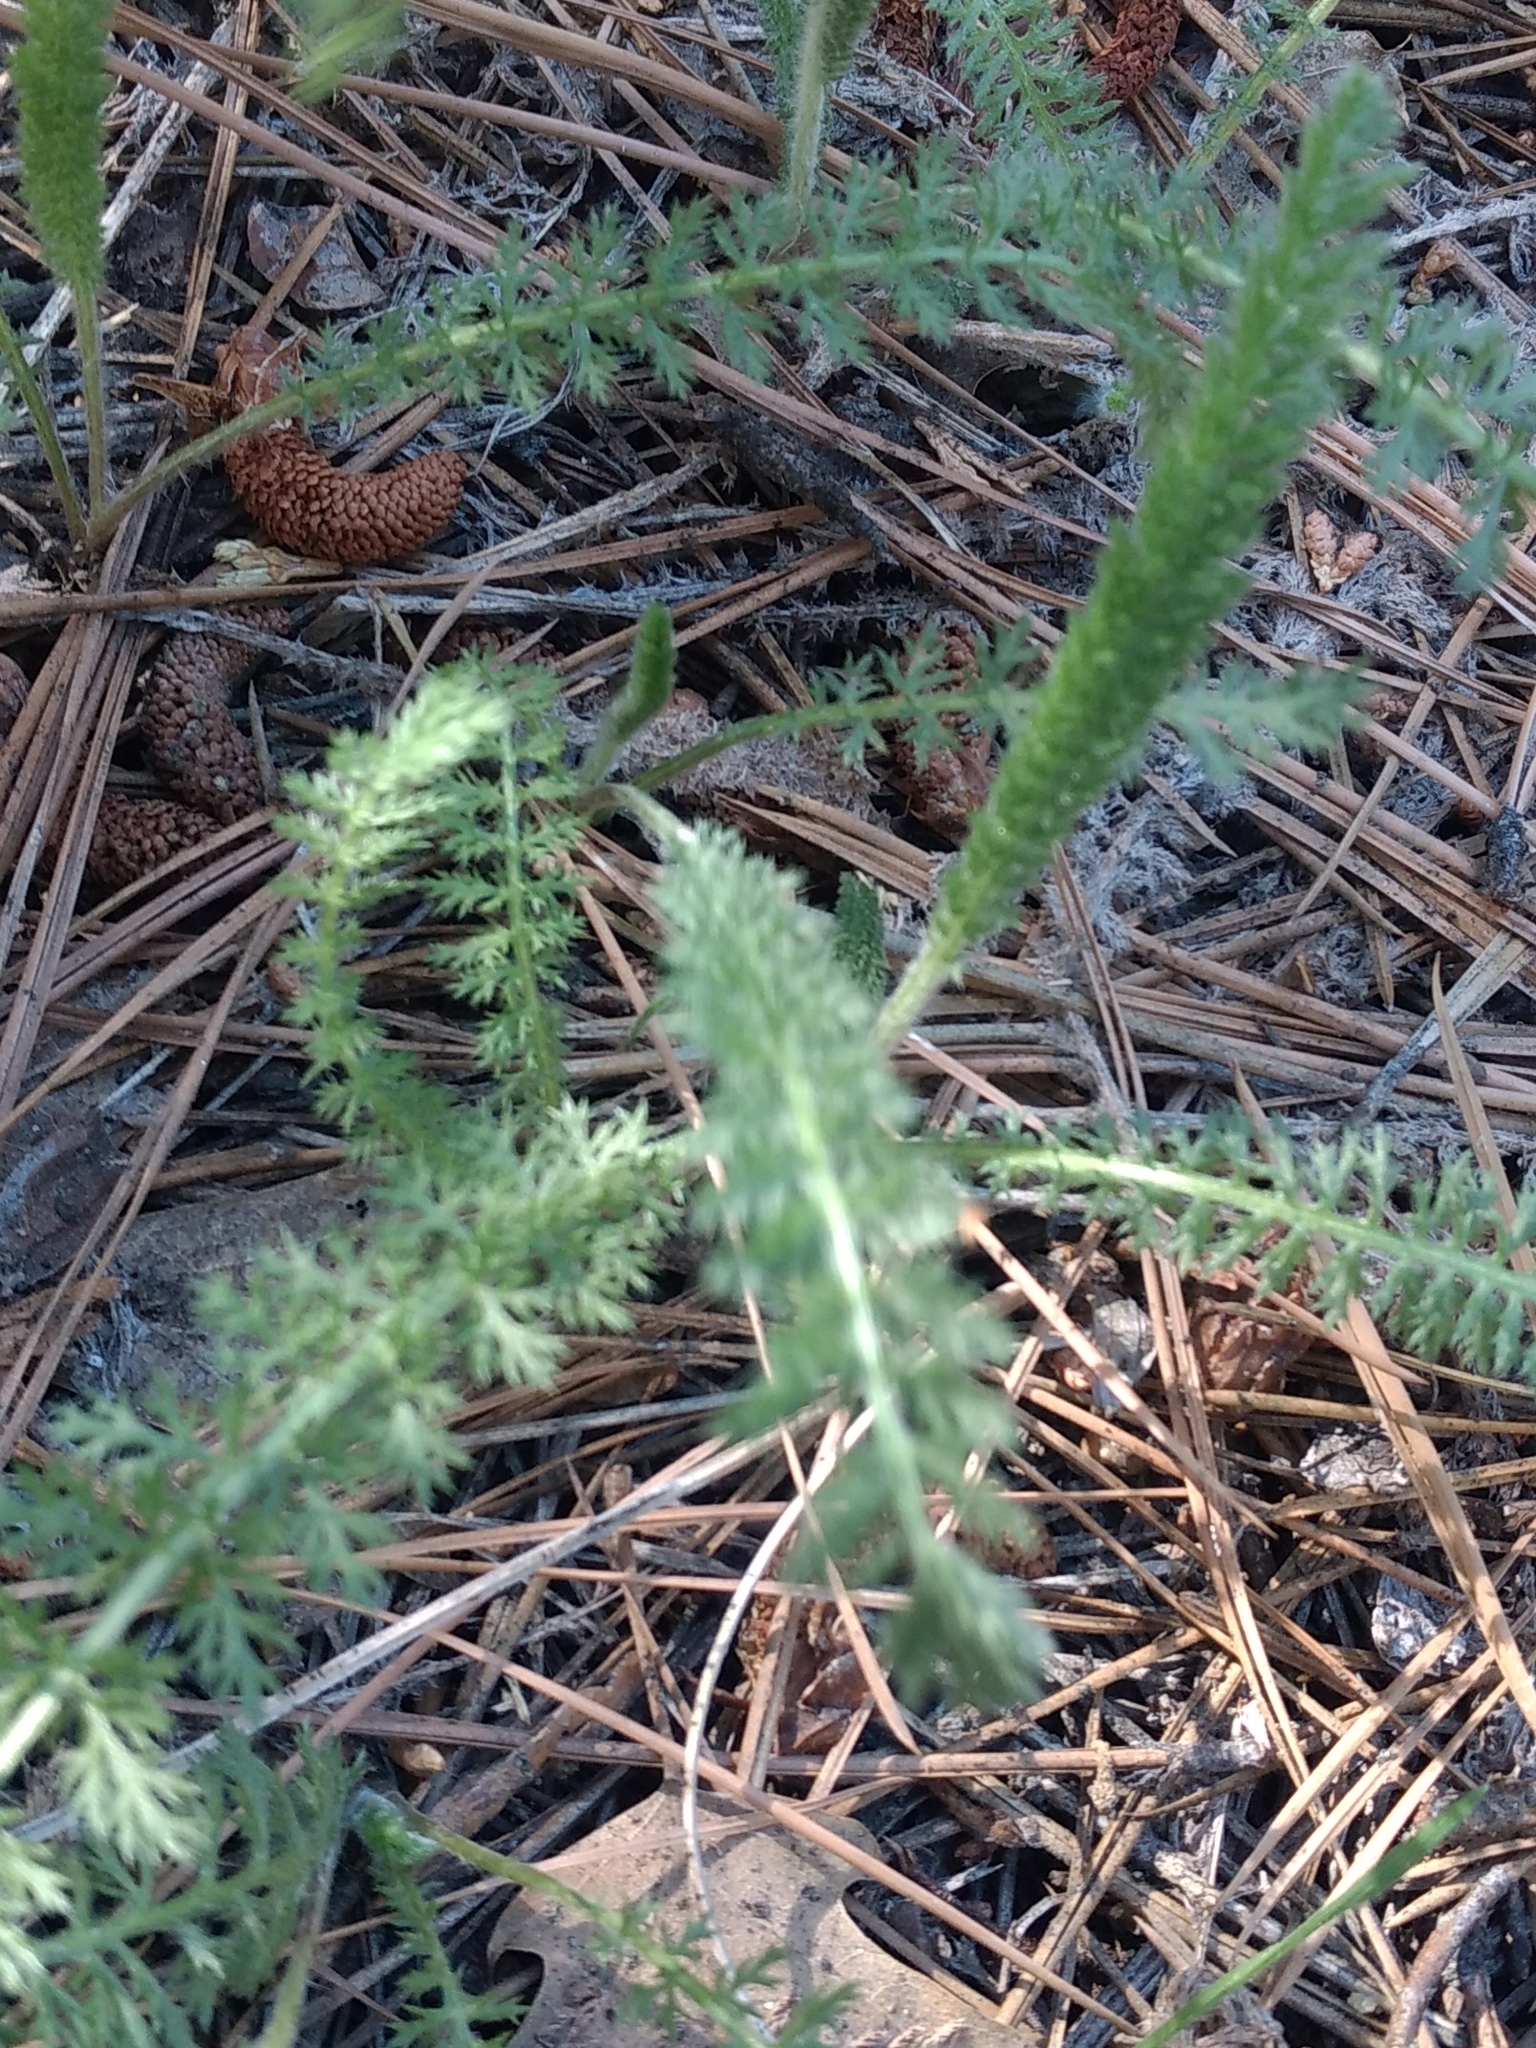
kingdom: Plantae
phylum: Tracheophyta
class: Magnoliopsida
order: Asterales
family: Asteraceae
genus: Achillea
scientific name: Achillea millefolium
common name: Yarrow
